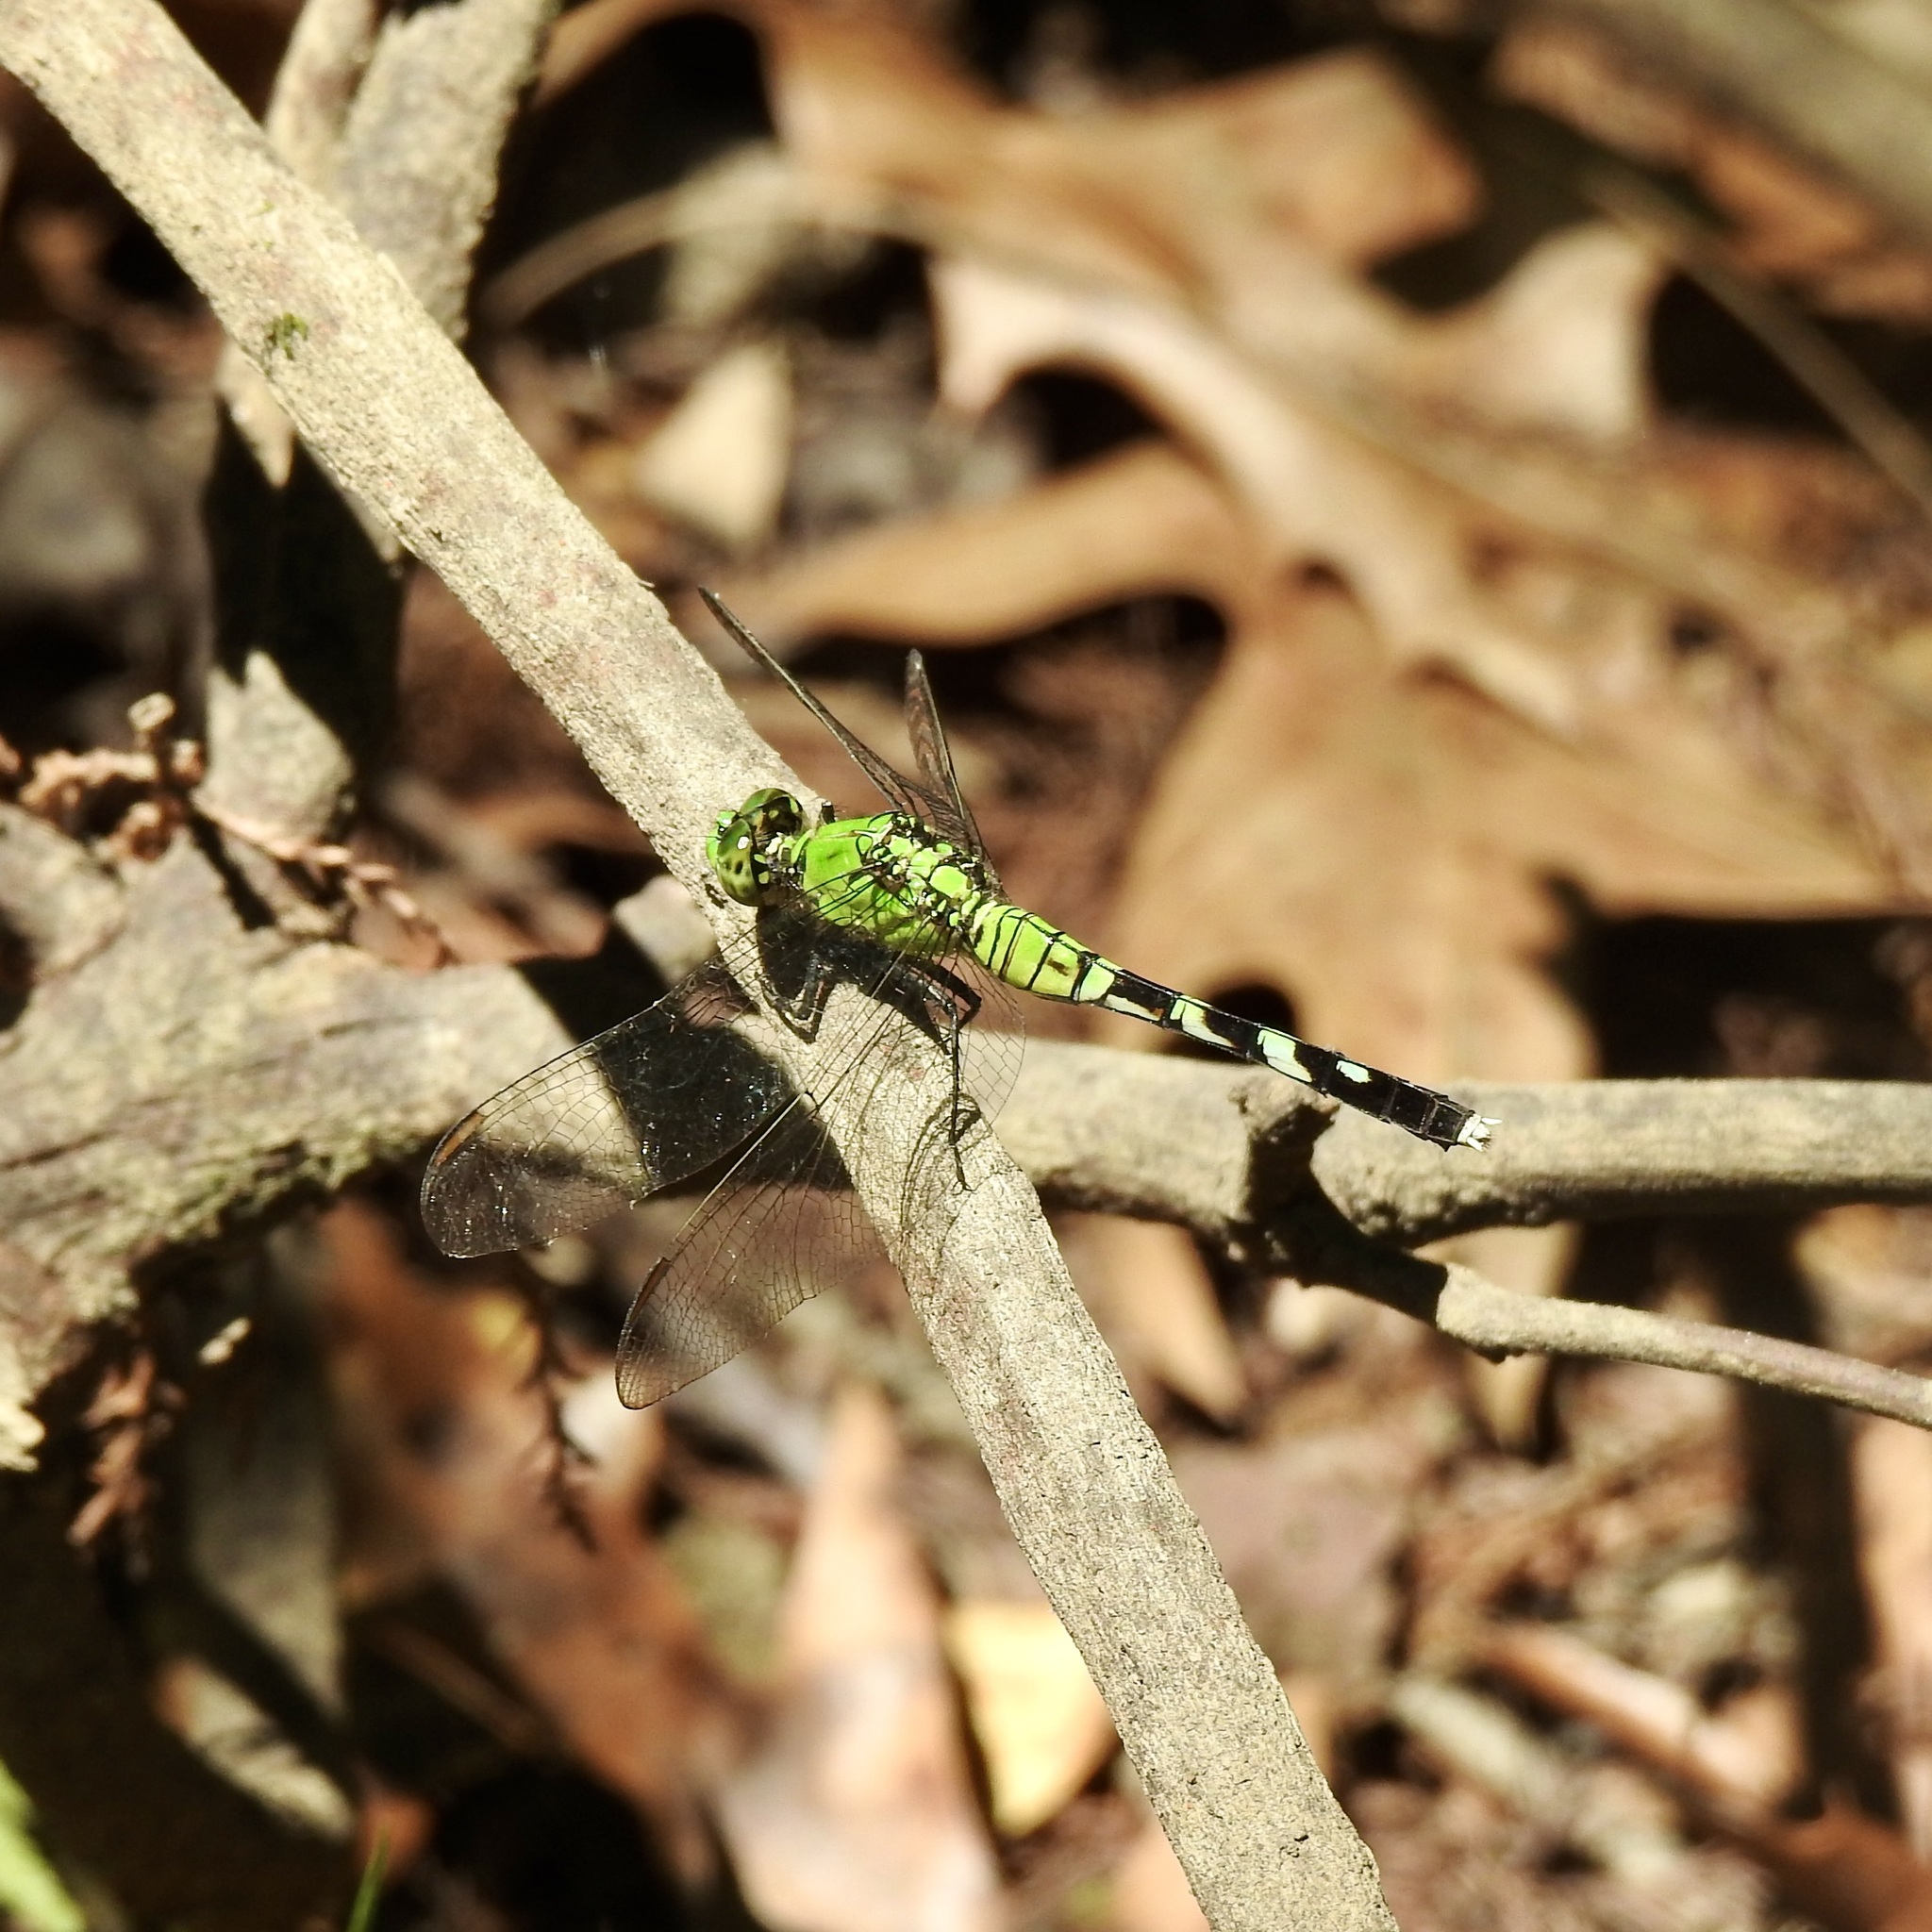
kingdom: Animalia
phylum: Arthropoda
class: Insecta
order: Odonata
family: Libellulidae
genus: Erythemis
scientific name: Erythemis simplicicollis
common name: Eastern pondhawk
